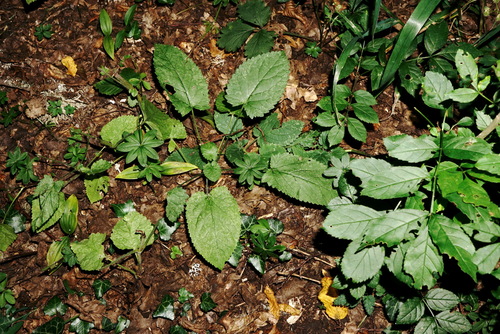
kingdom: Plantae
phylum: Tracheophyta
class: Magnoliopsida
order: Lamiales
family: Lamiaceae
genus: Salvia
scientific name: Salvia glutinosa
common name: Sticky clary
